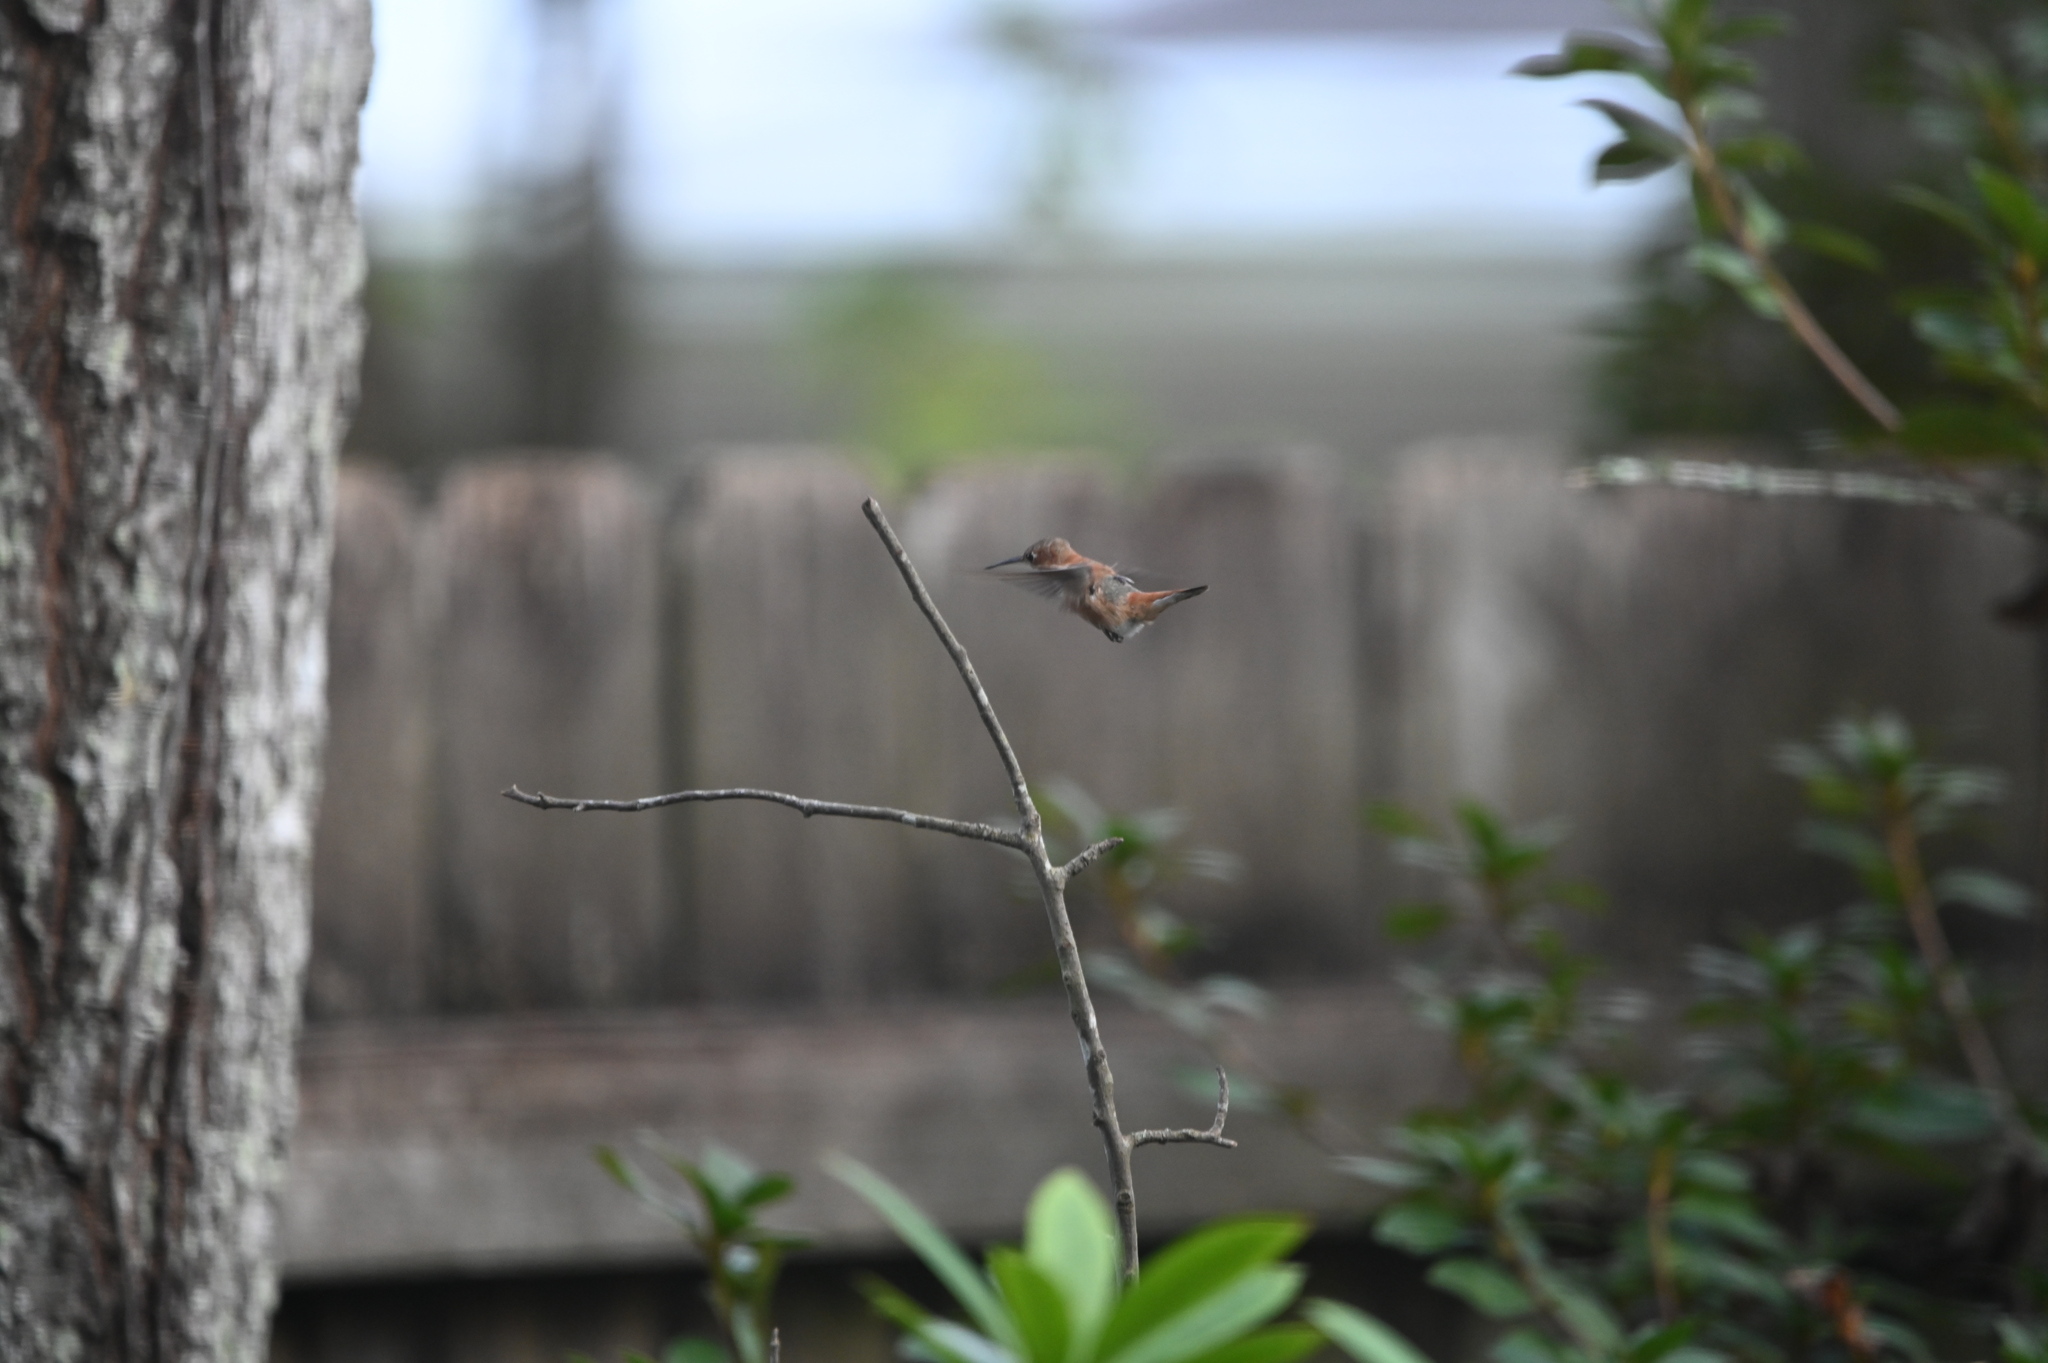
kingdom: Animalia
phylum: Chordata
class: Aves
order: Apodiformes
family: Trochilidae
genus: Selasphorus
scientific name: Selasphorus rufus
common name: Rufous hummingbird
